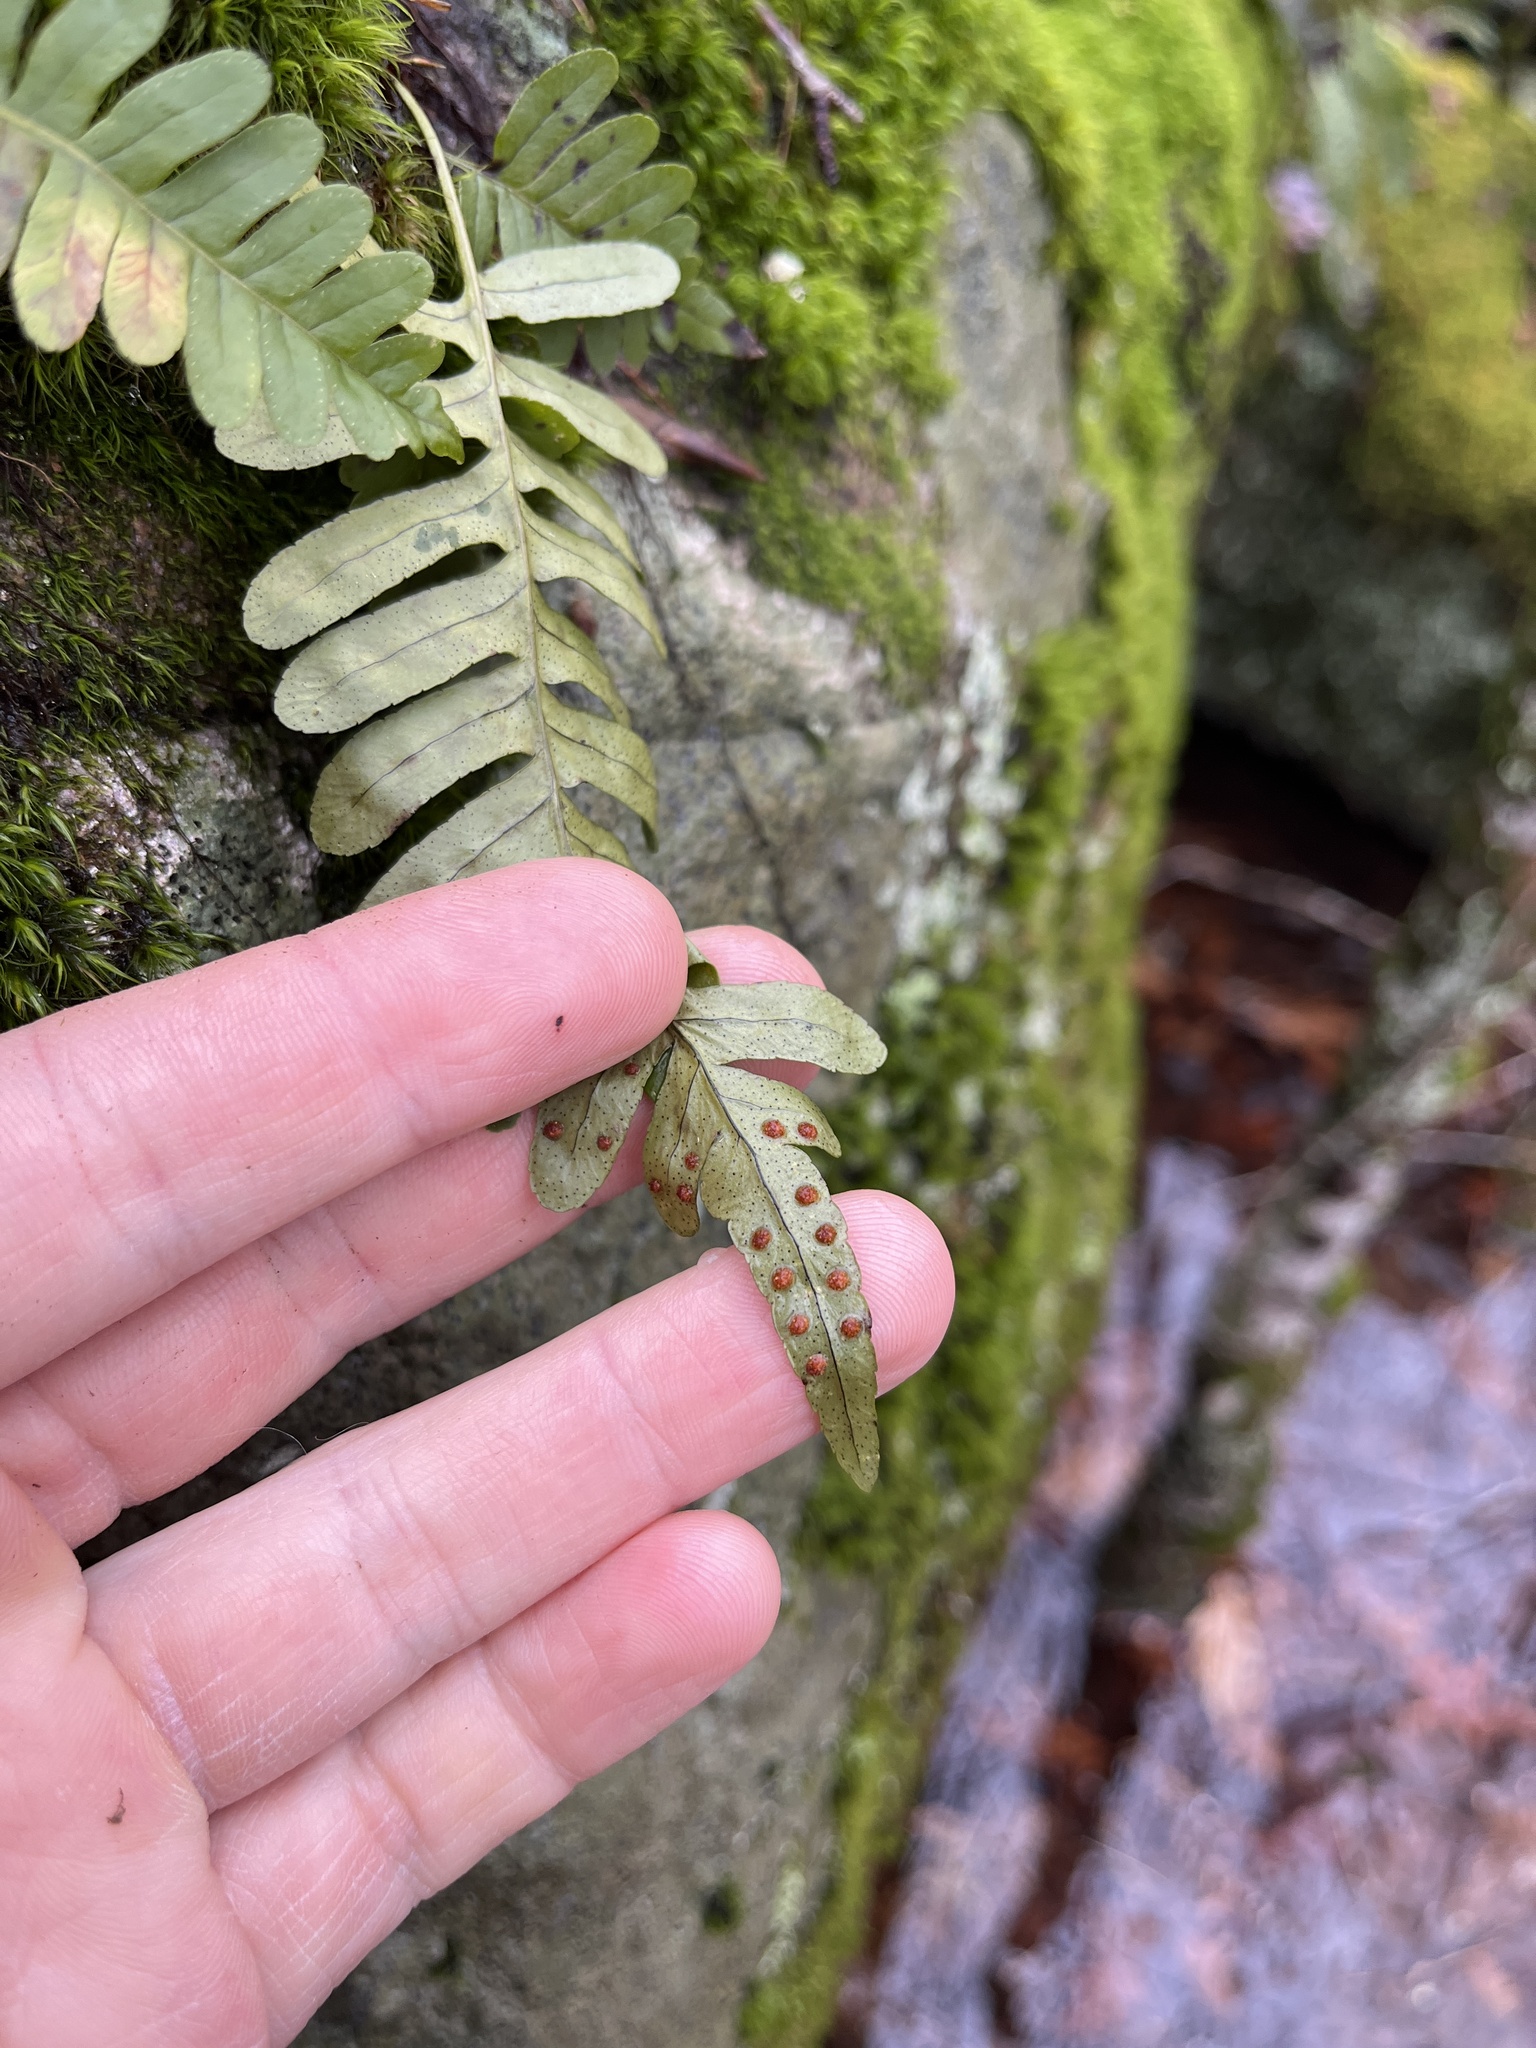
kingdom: Plantae
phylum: Tracheophyta
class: Polypodiopsida
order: Polypodiales
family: Polypodiaceae
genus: Polypodium
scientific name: Polypodium virginianum
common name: American wall fern
